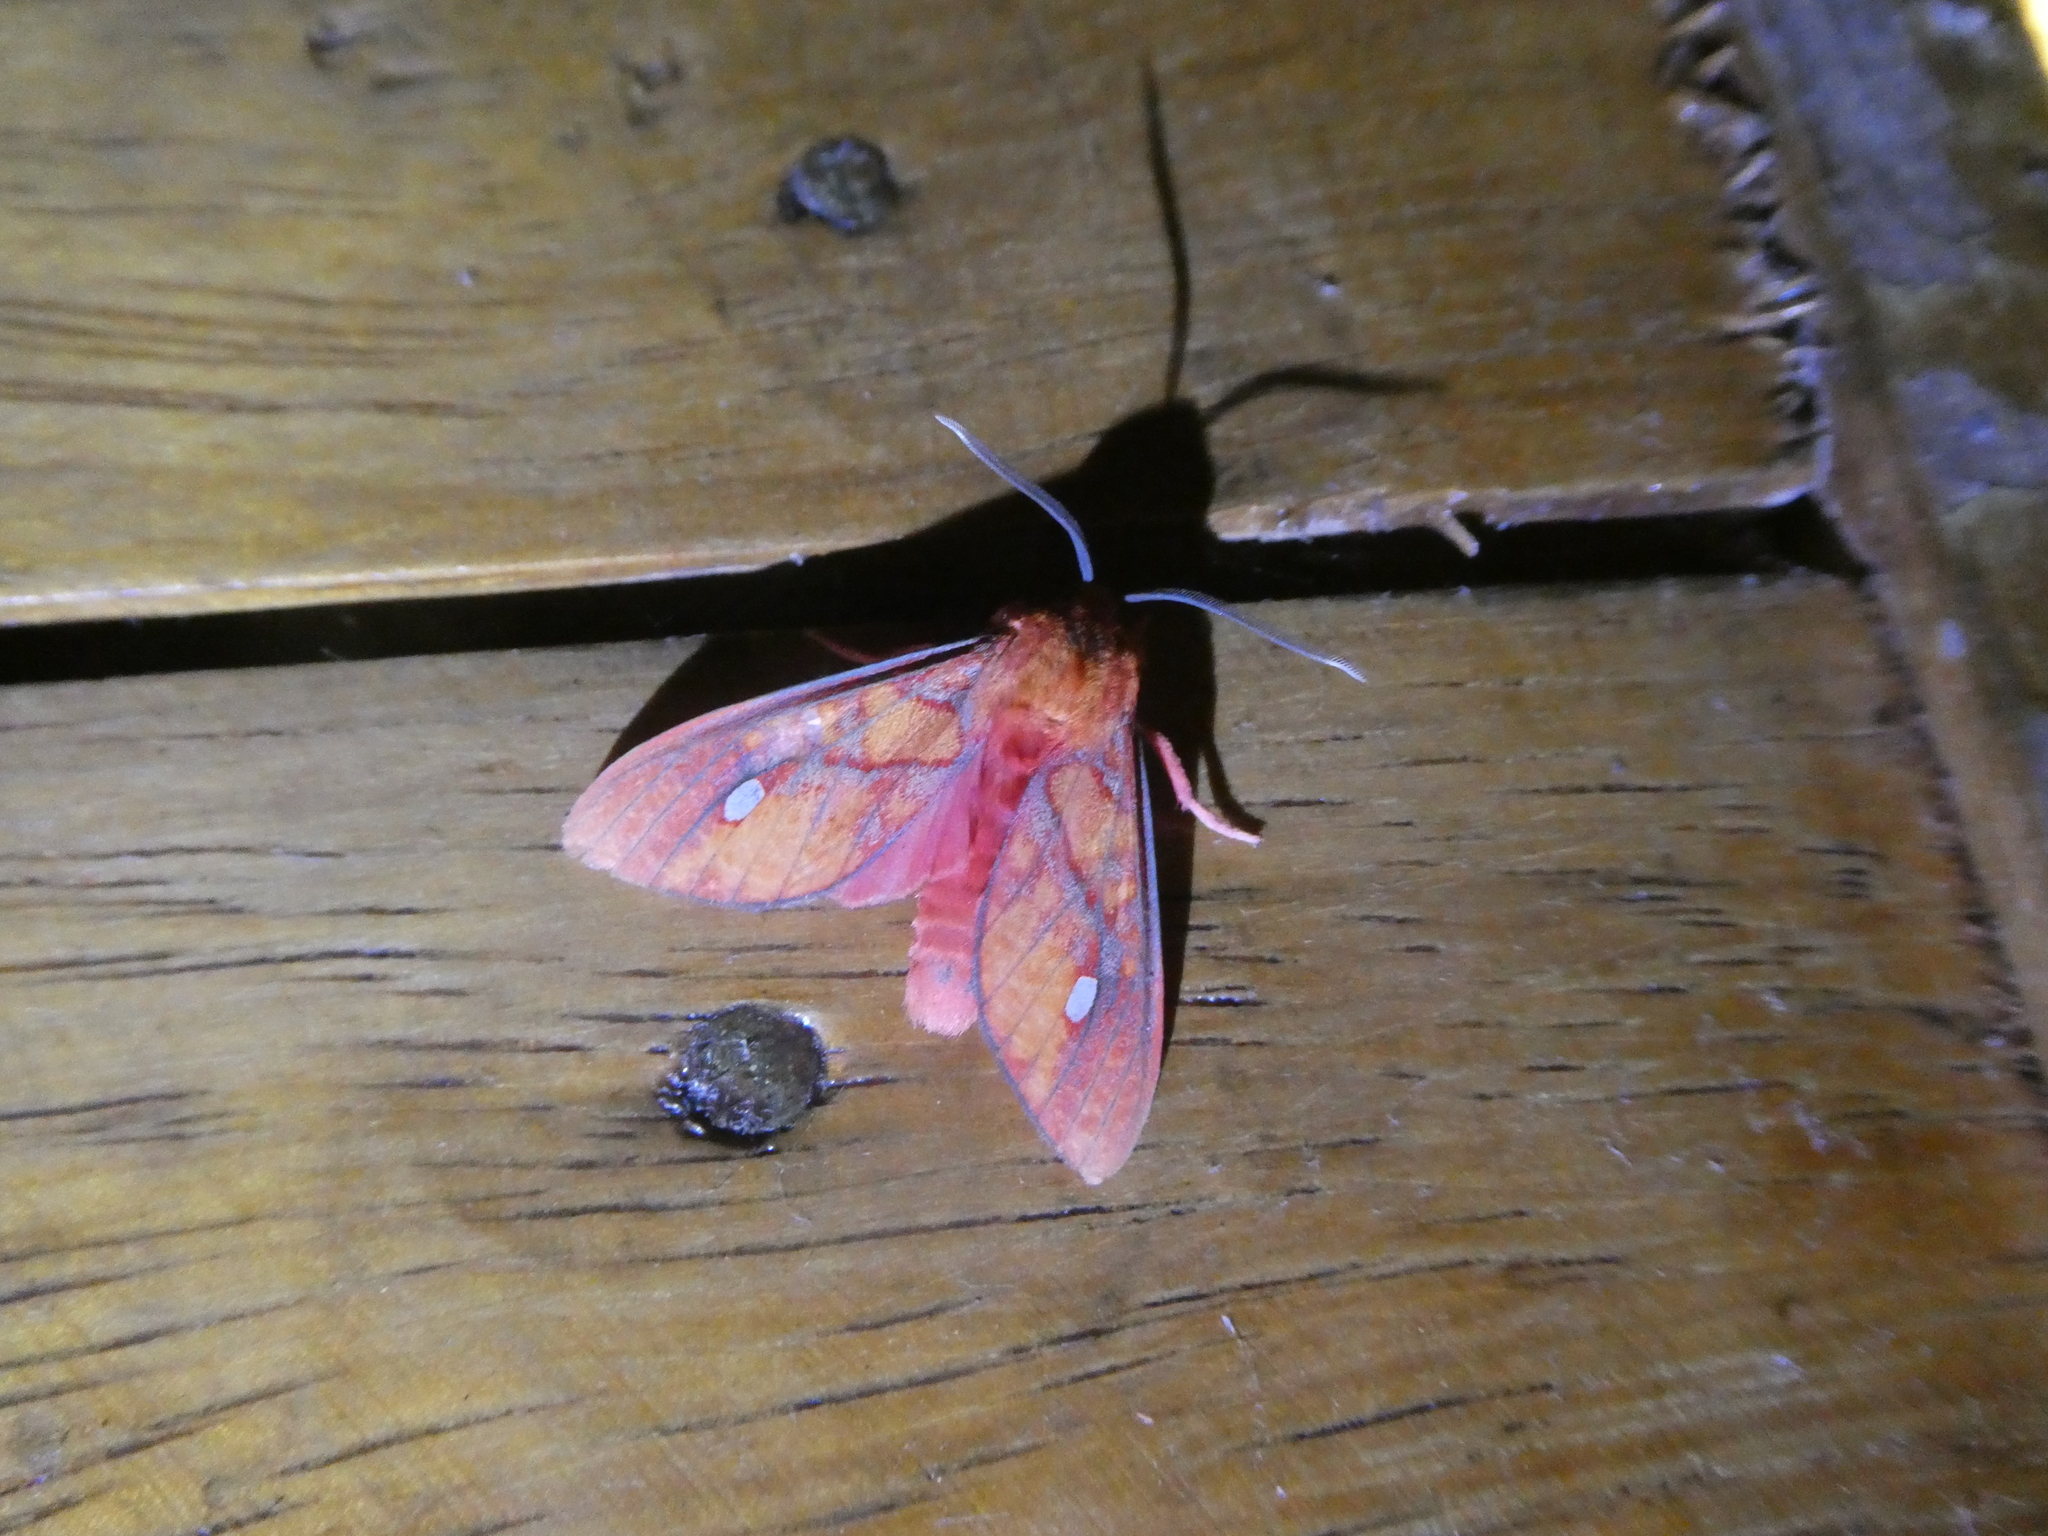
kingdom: Animalia
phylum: Arthropoda
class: Insecta
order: Lepidoptera
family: Erebidae
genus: Ernassa
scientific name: Ernassa sanguinolenta
